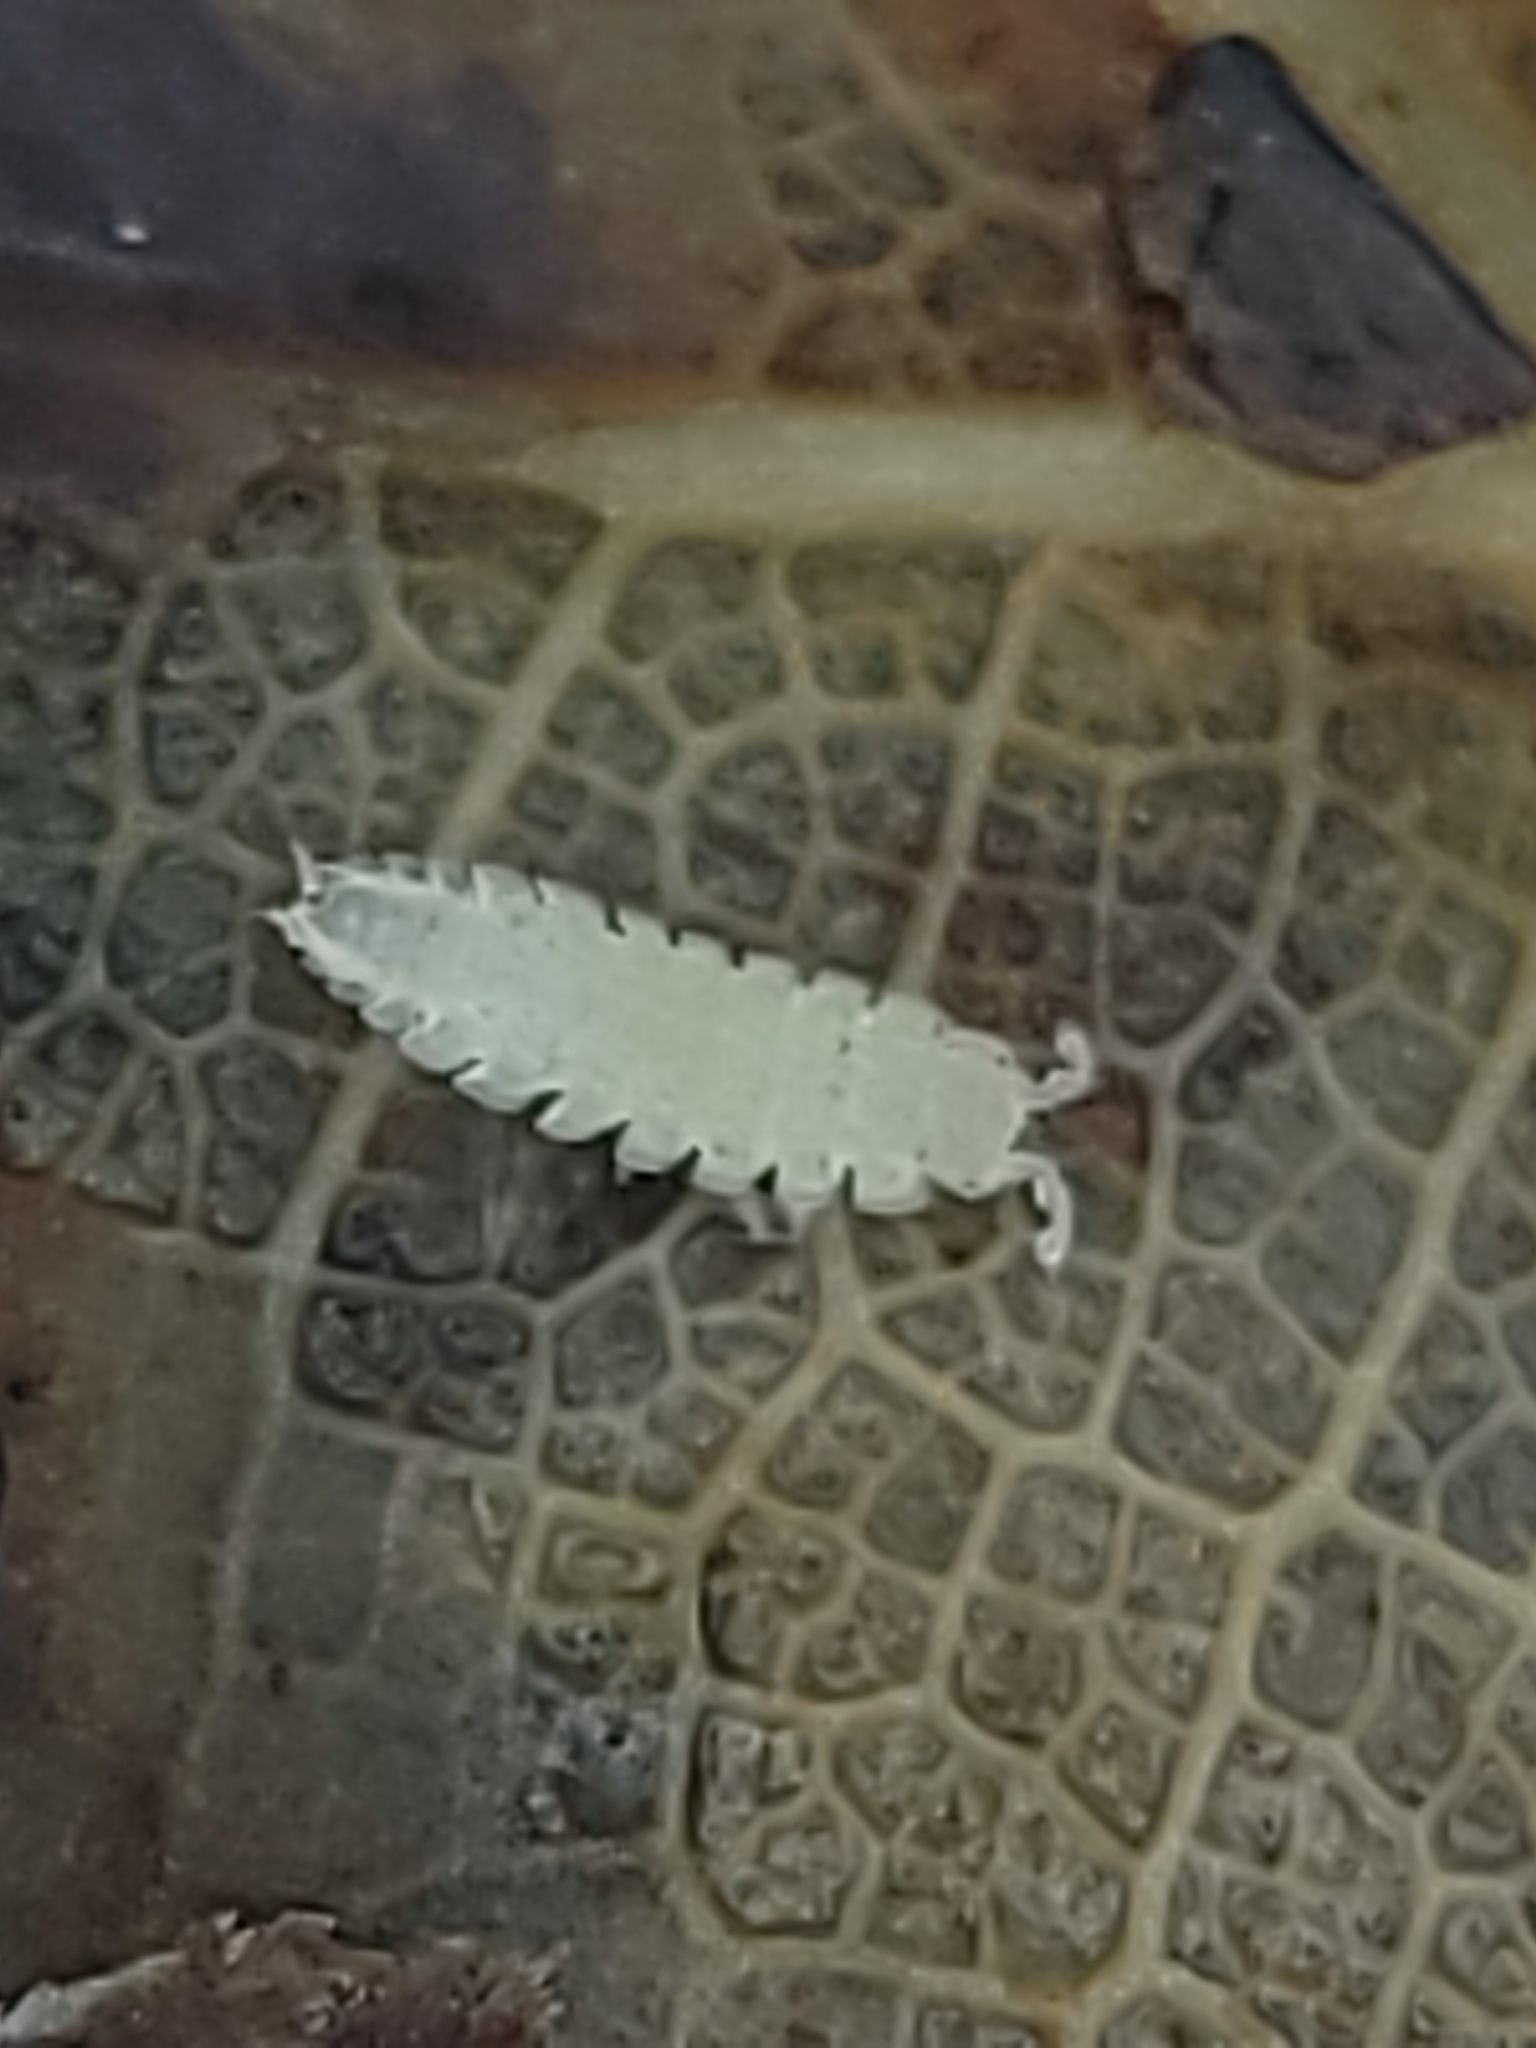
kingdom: Animalia
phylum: Arthropoda
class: Malacostraca
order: Isopoda
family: Trichoniscidae
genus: Haplophthalmus
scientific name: Haplophthalmus danicus
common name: Pillbug
